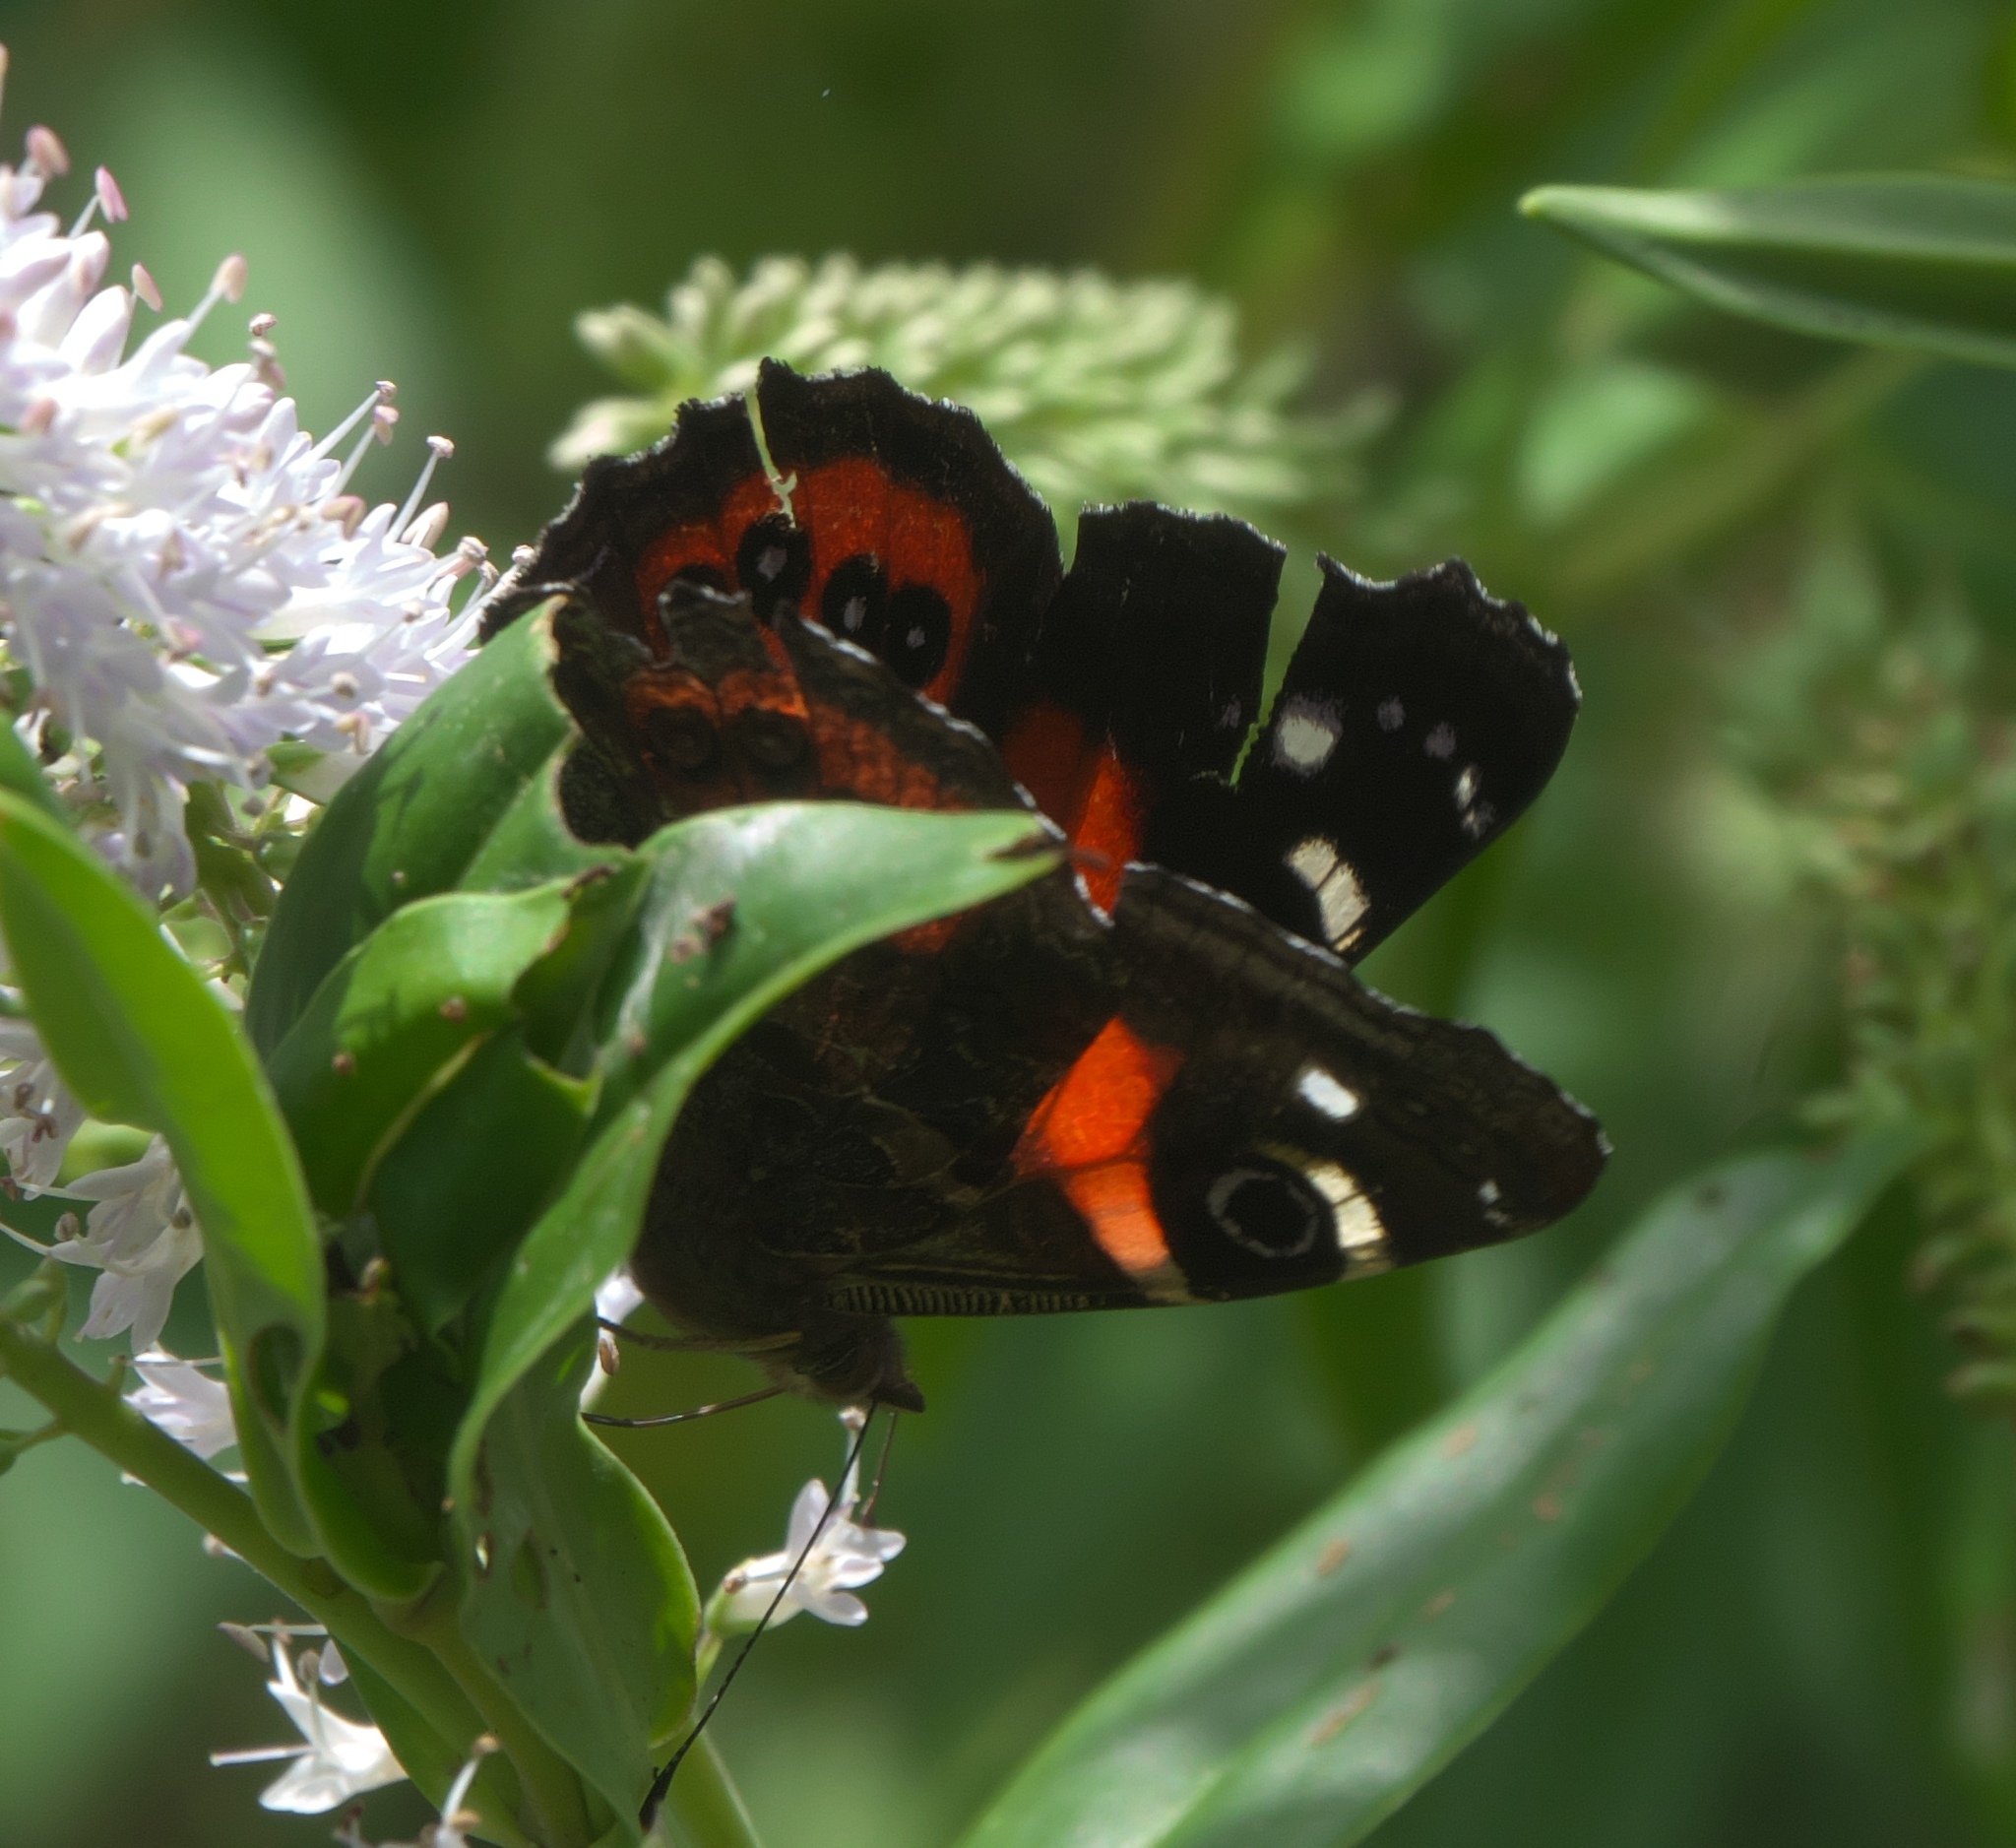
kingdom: Animalia
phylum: Arthropoda
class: Insecta
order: Lepidoptera
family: Nymphalidae
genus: Vanessa
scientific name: Vanessa gonerilla
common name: New zealand red admiral
